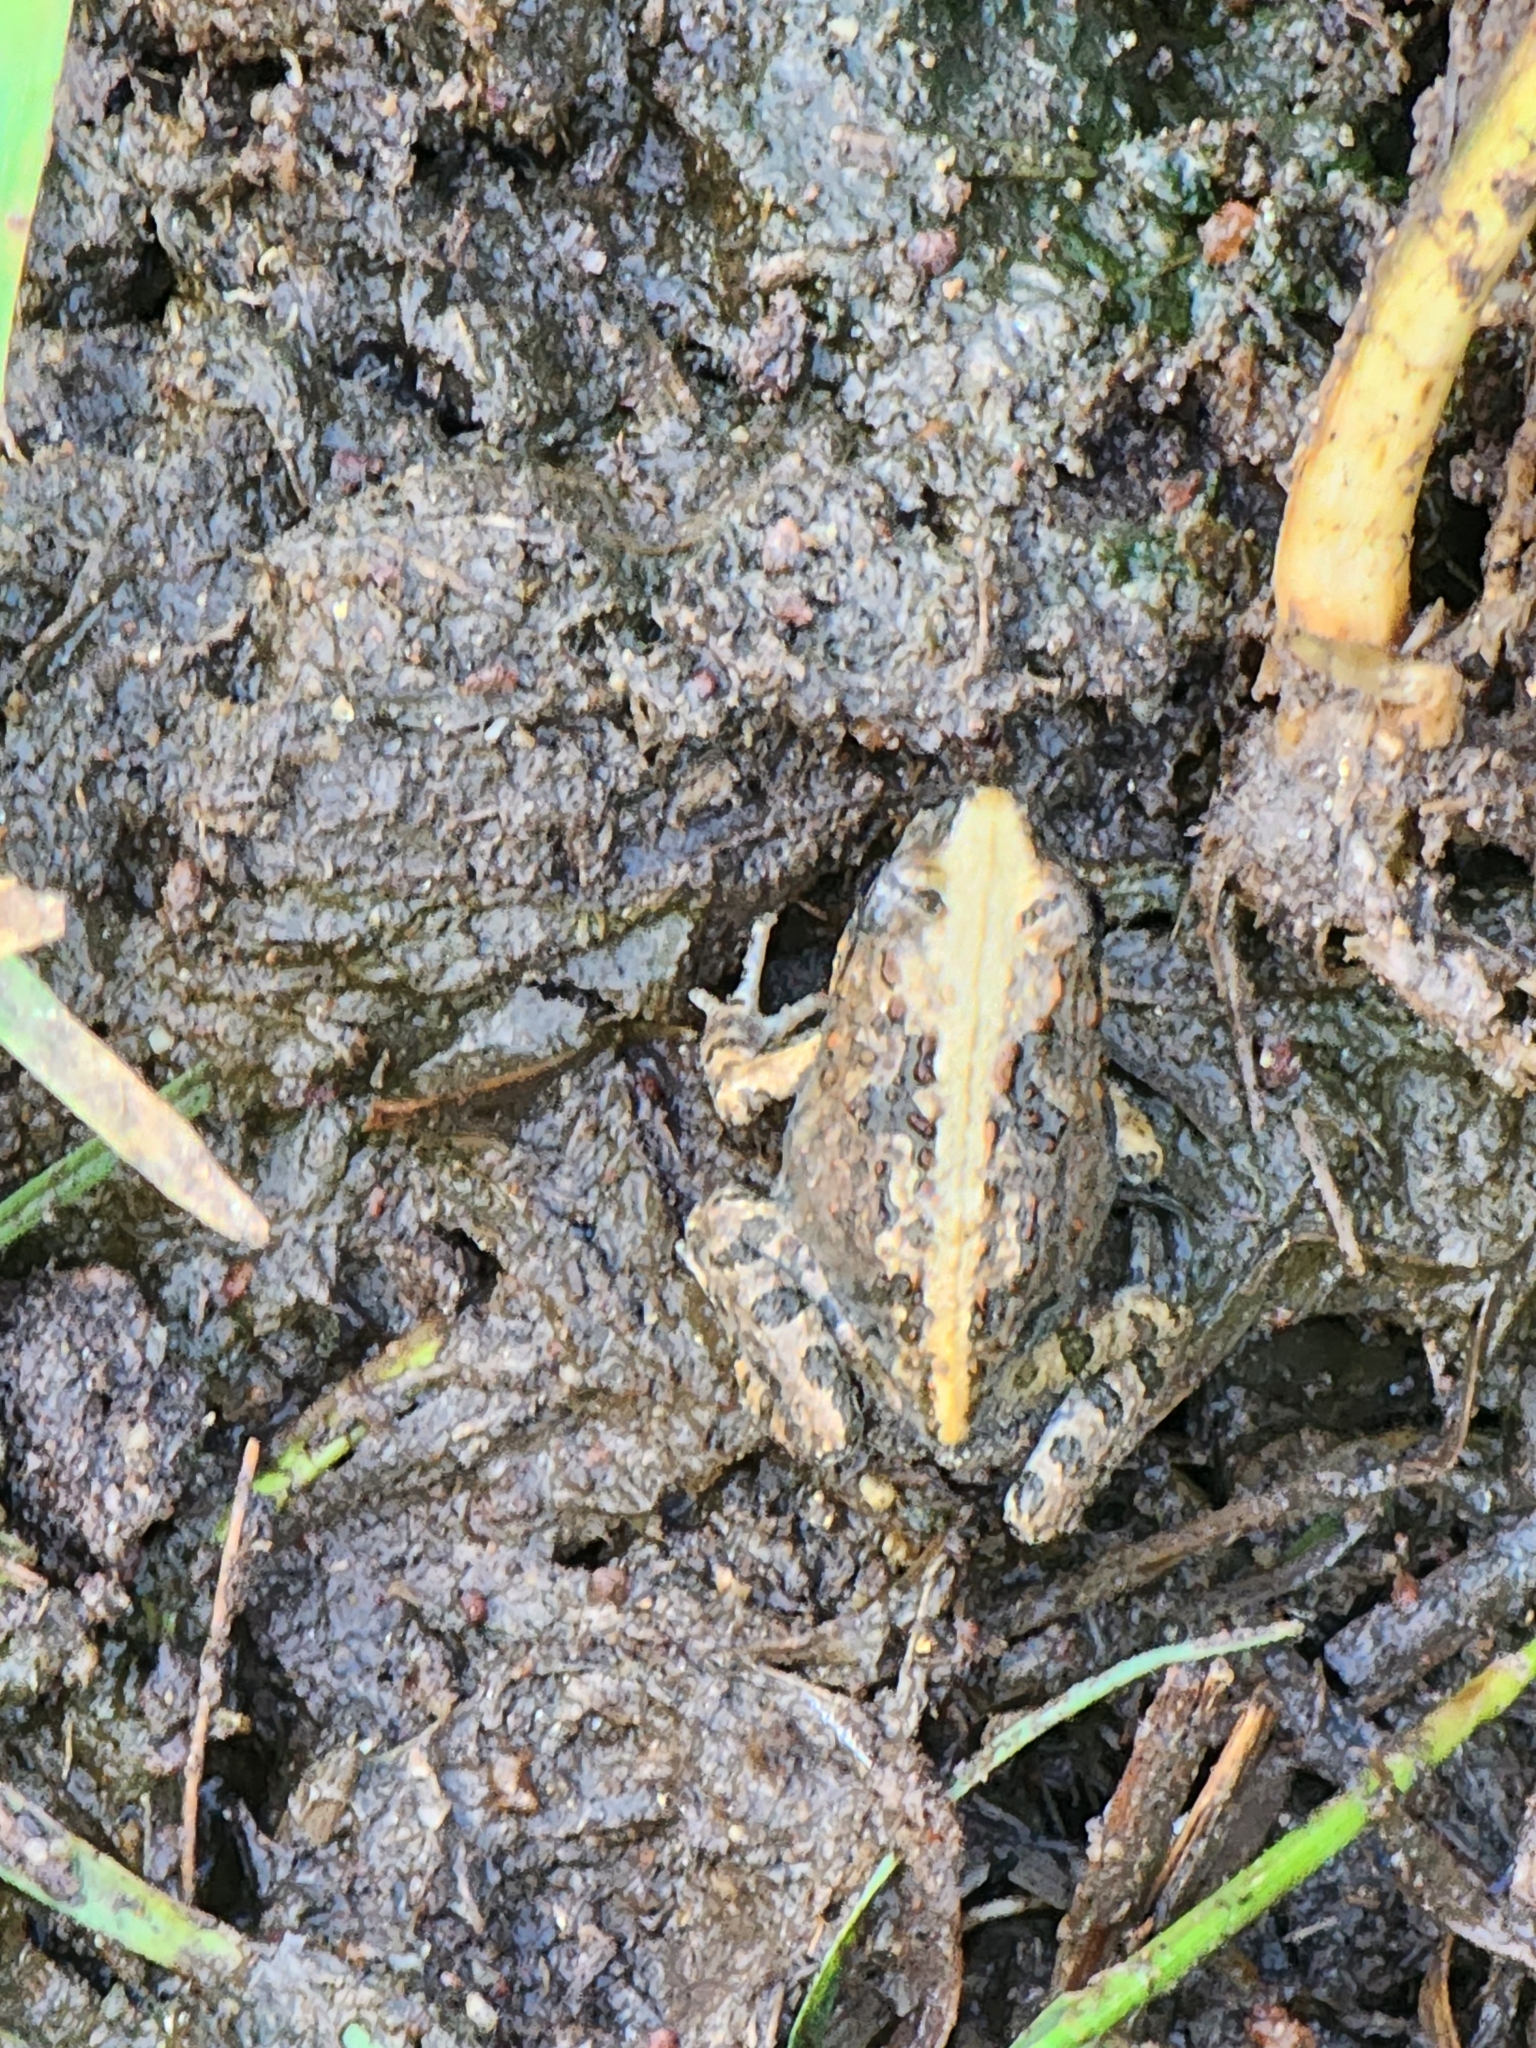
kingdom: Animalia
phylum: Chordata
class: Amphibia
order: Anura
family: Limnodynastidae
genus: Platyplectrum
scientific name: Platyplectrum ornatum
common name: Ornate burrowing frog
